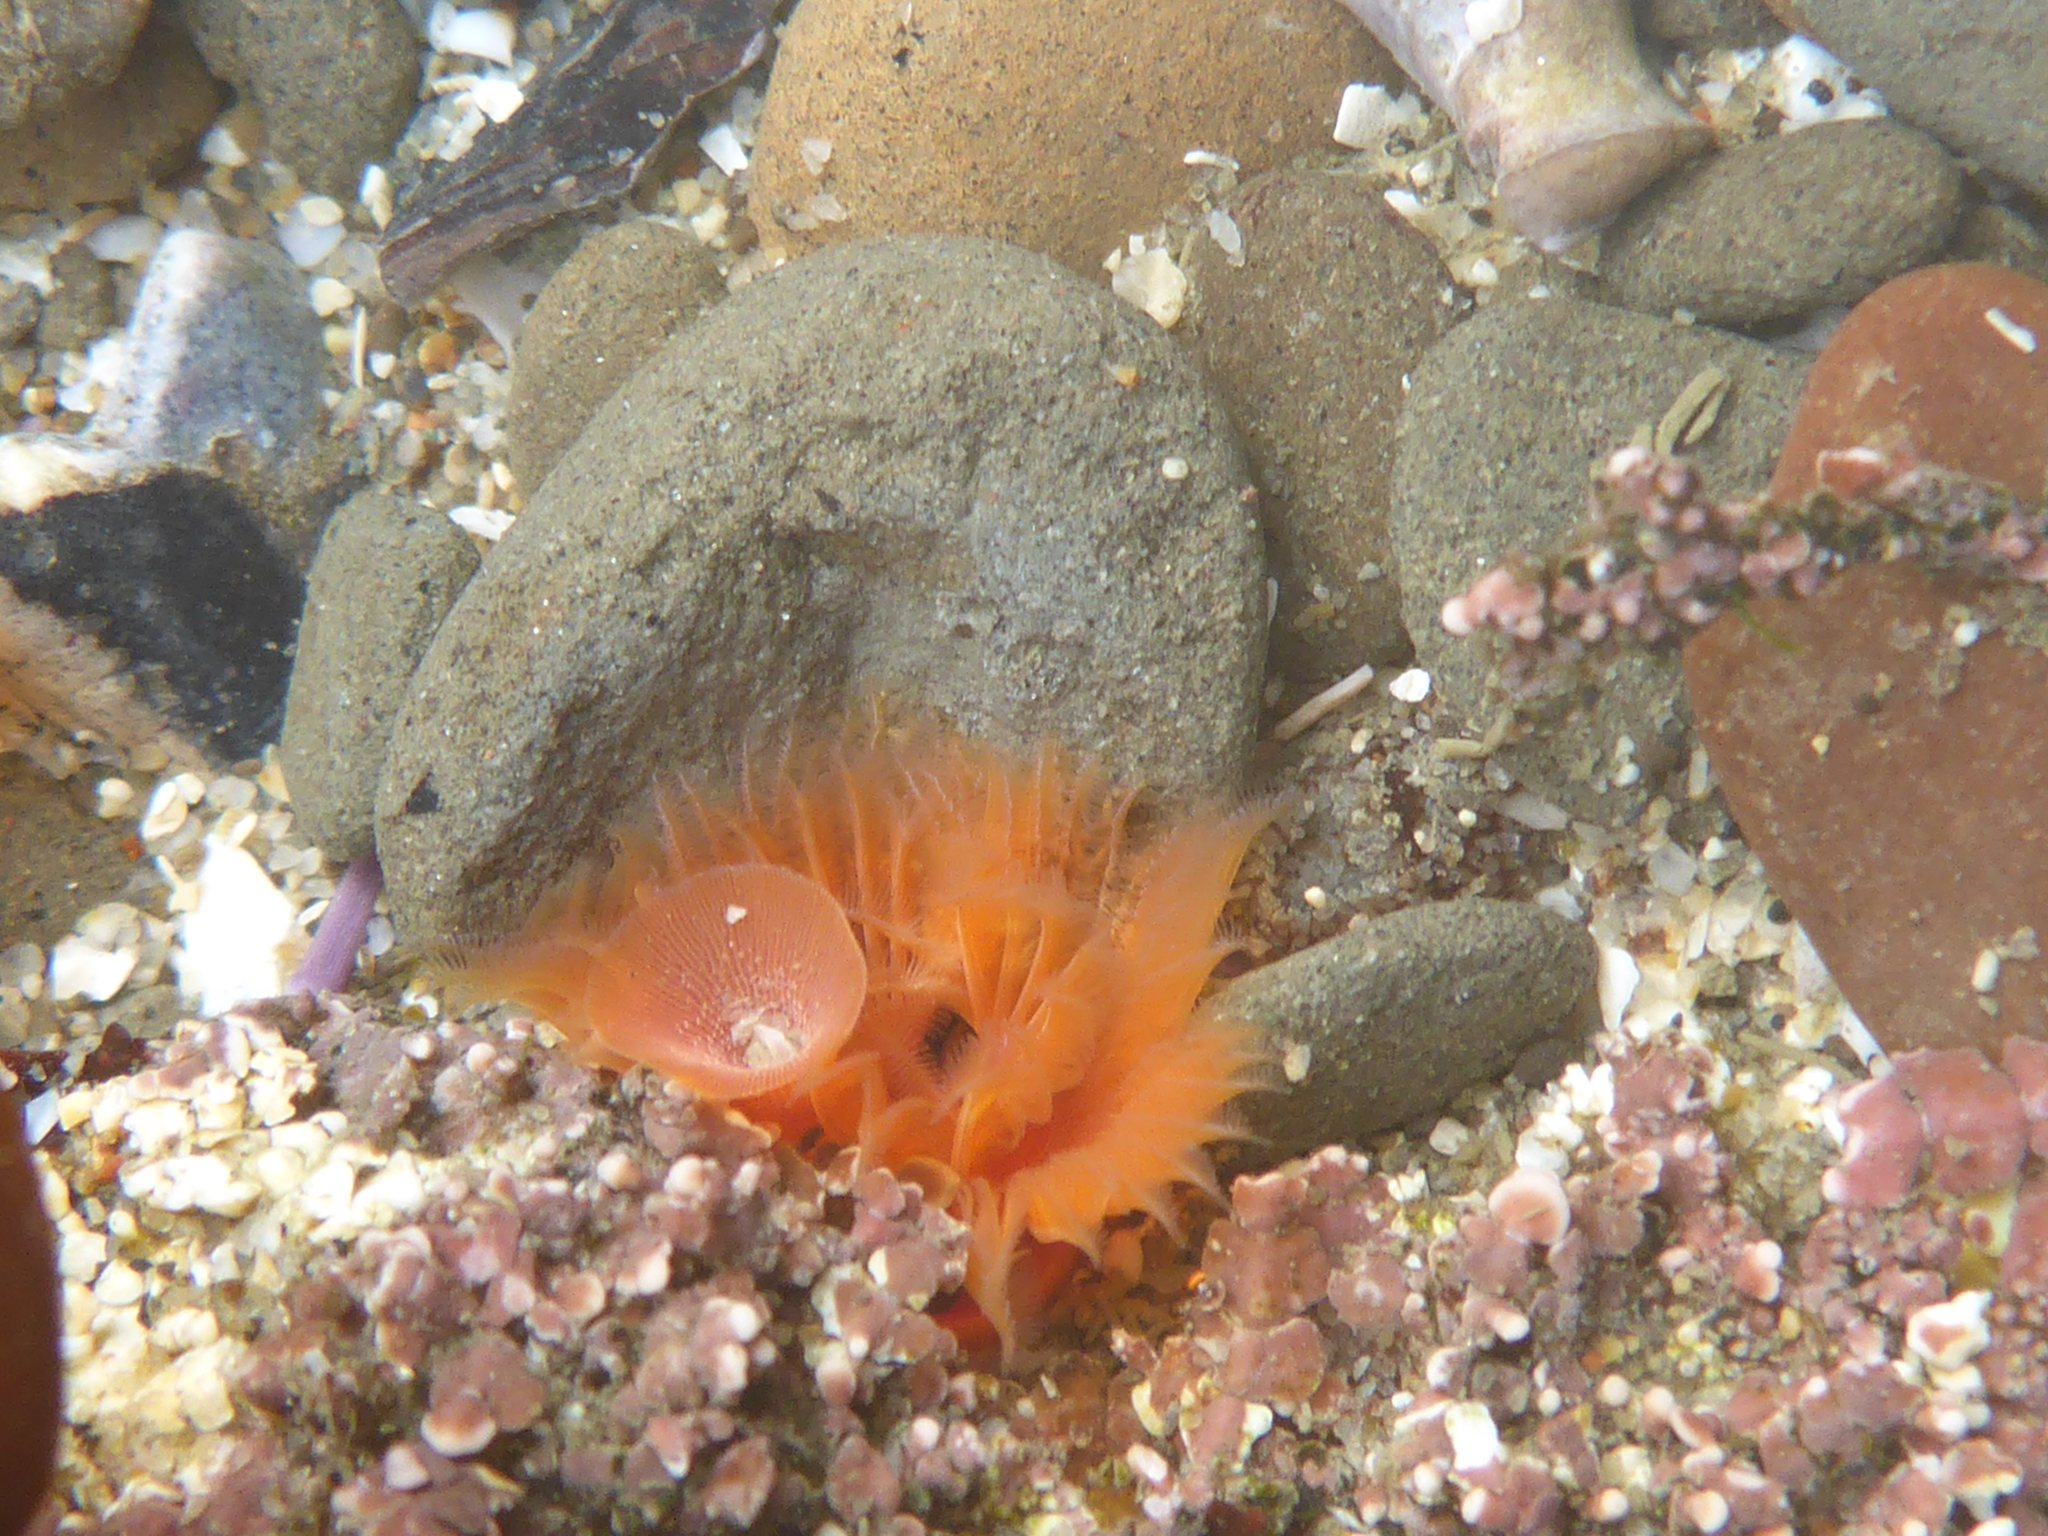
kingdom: Animalia
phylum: Annelida
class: Polychaeta
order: Sabellida
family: Serpulidae
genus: Serpula
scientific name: Serpula columbiana
